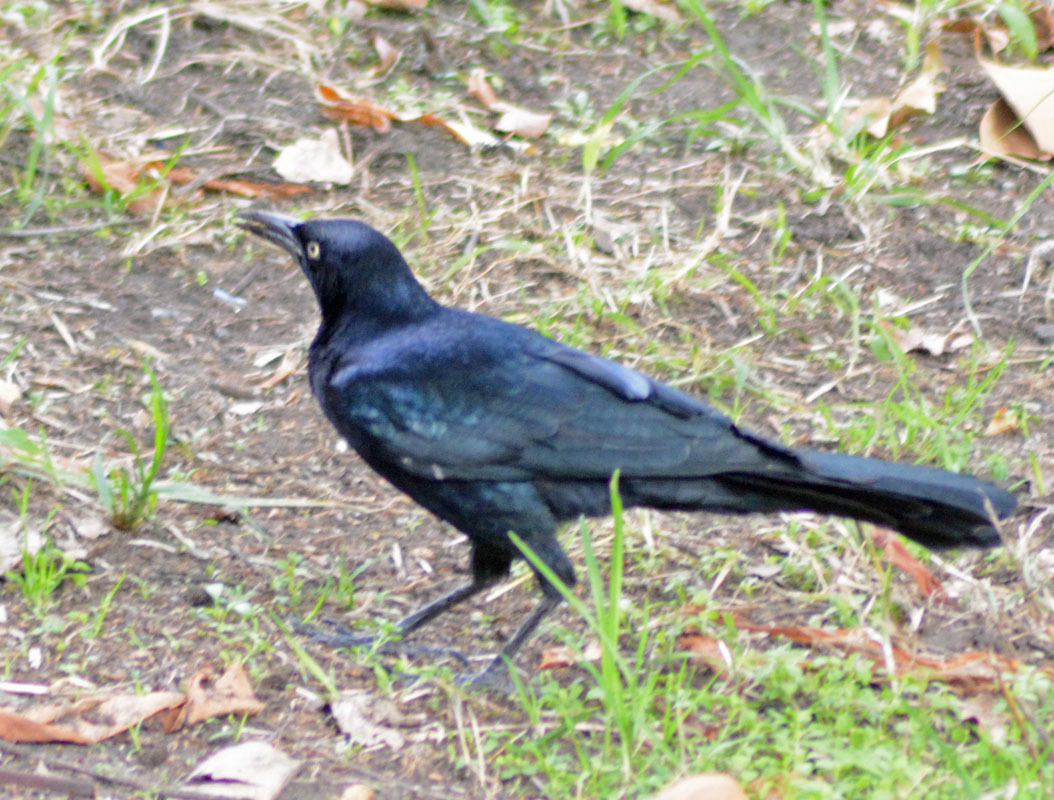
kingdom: Animalia
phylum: Chordata
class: Aves
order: Passeriformes
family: Icteridae
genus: Quiscalus
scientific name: Quiscalus mexicanus
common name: Great-tailed grackle
